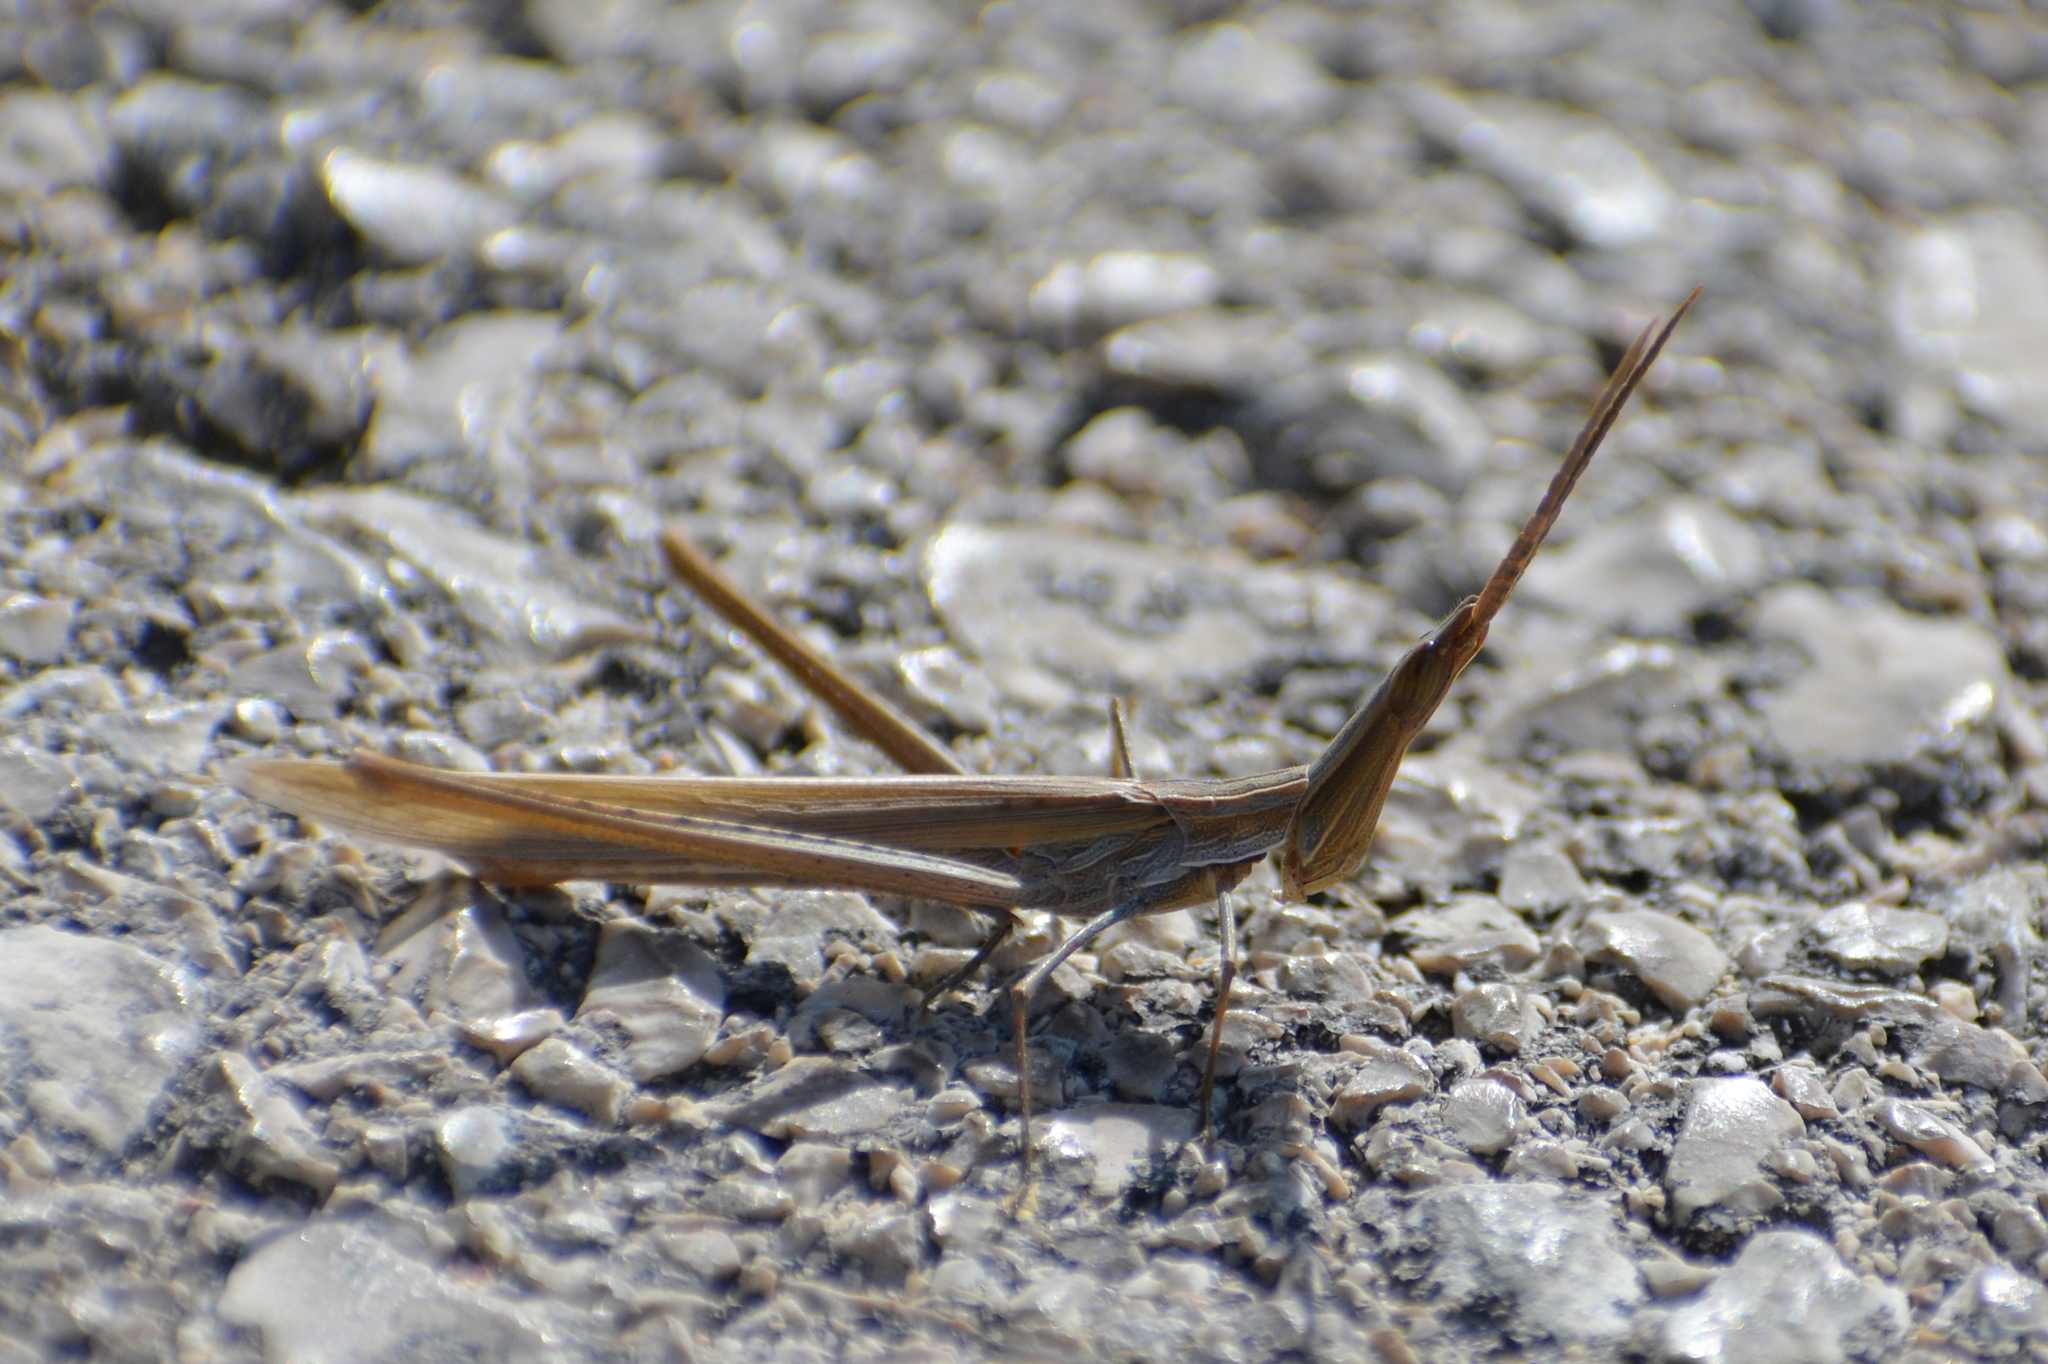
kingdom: Animalia
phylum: Arthropoda
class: Insecta
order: Orthoptera
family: Acrididae
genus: Acrida
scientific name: Acrida ungarica
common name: Common cone-headed grasshopper
